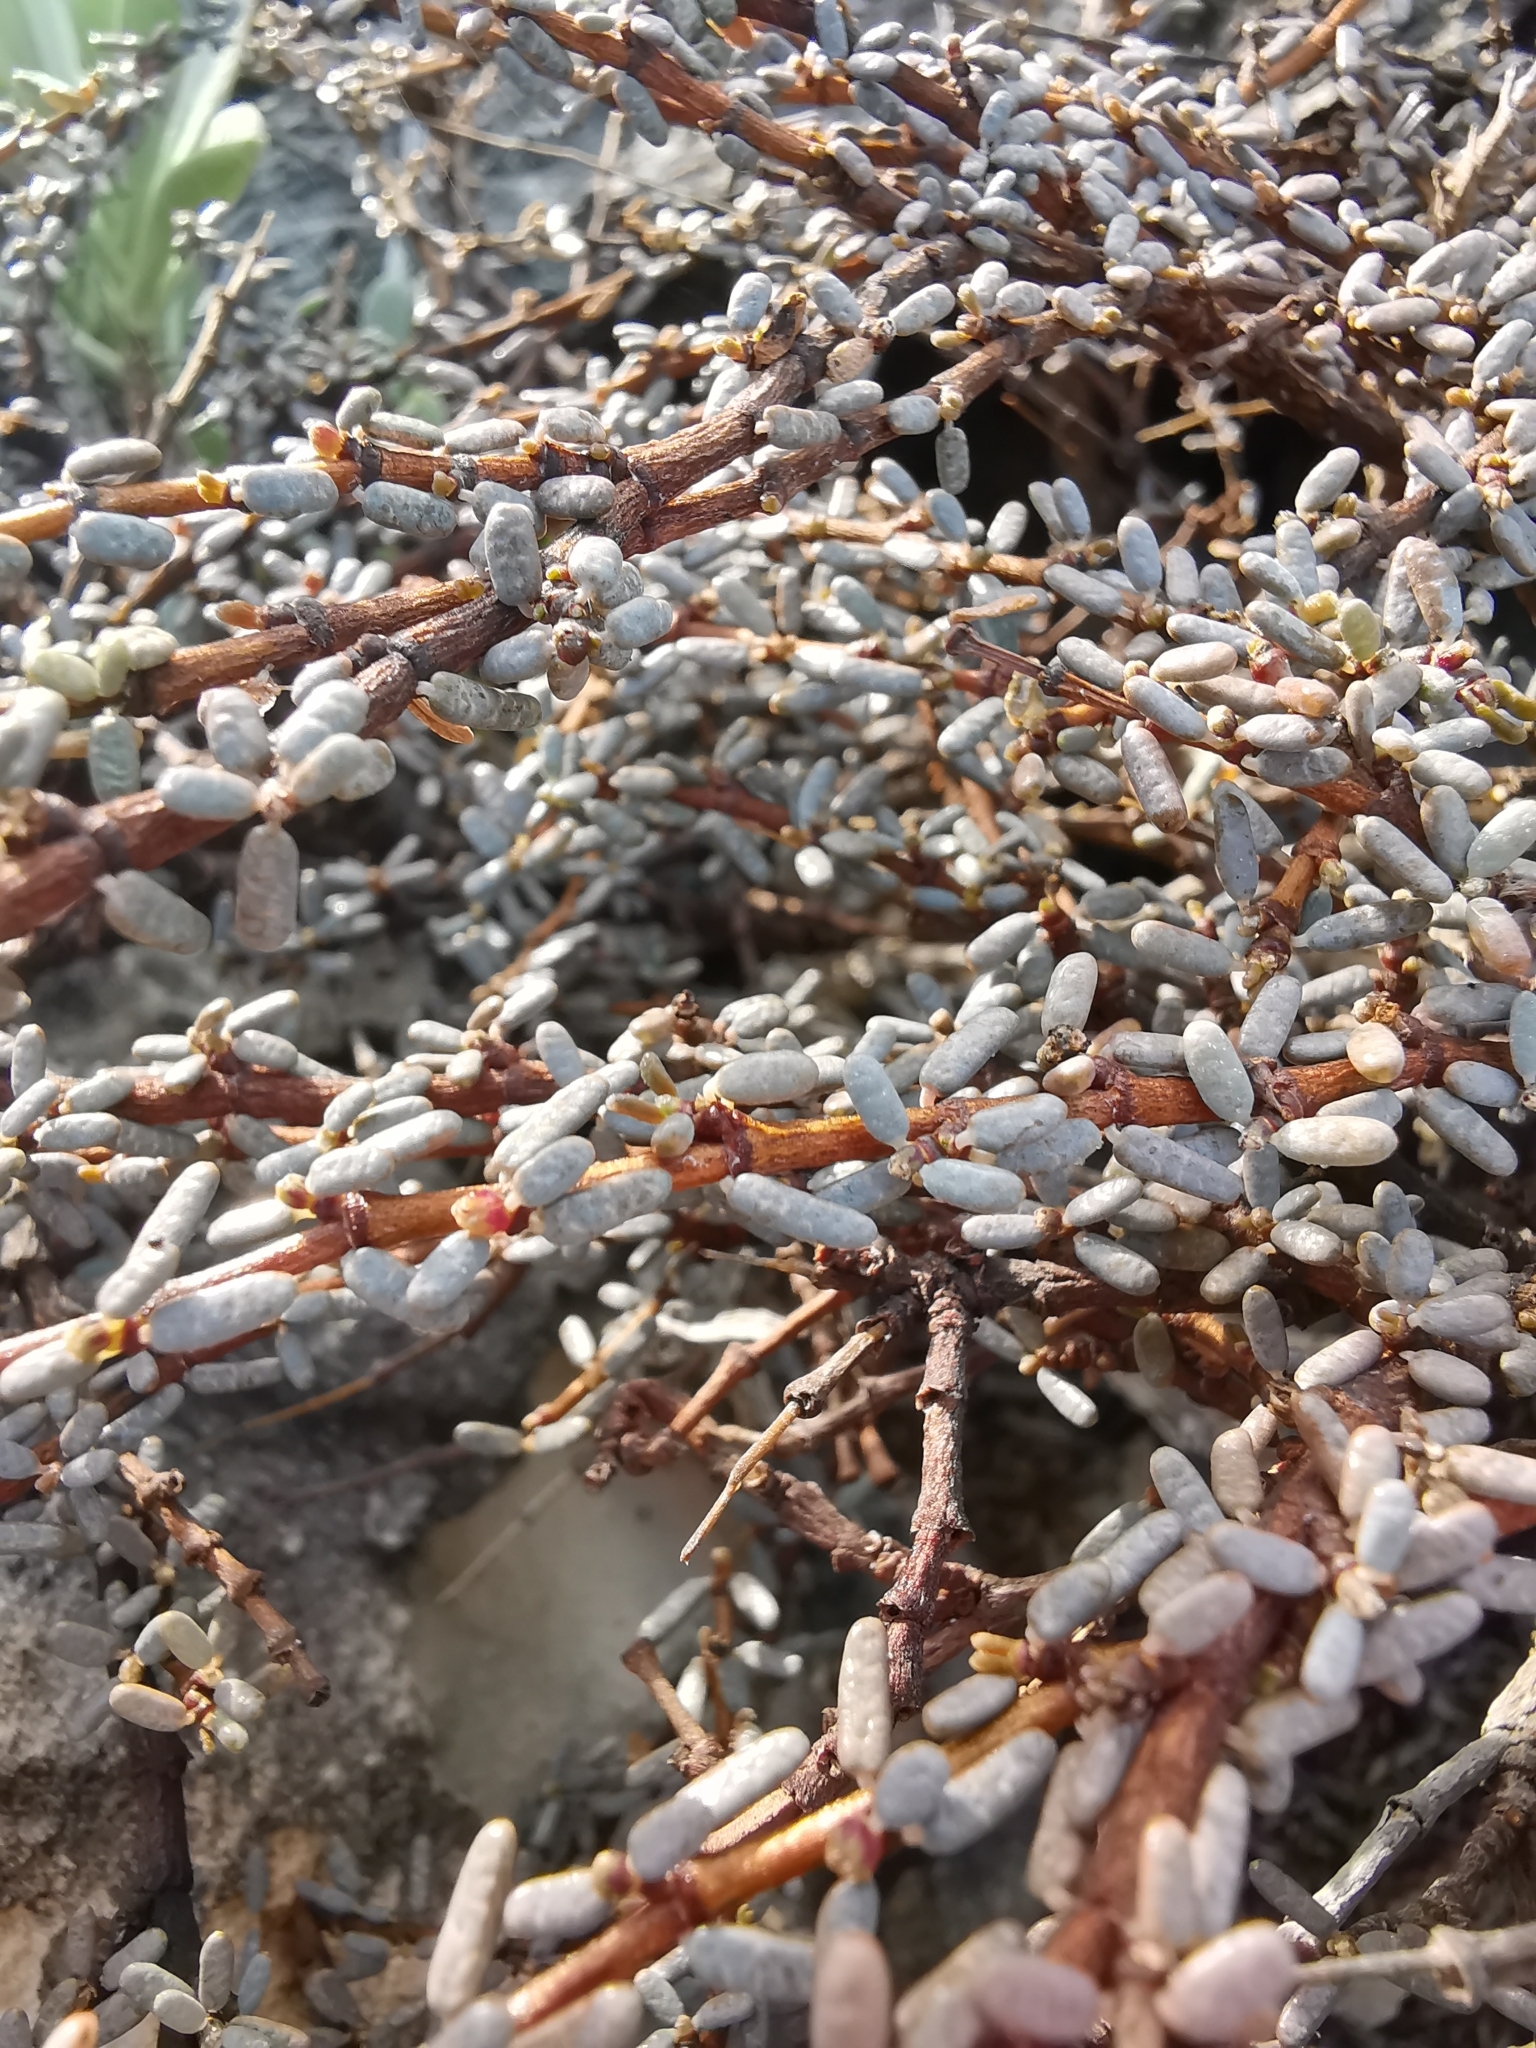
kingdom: Plantae
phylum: Tracheophyta
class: Magnoliopsida
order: Malpighiales
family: Euphorbiaceae
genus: Euphorbia
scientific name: Euphorbia vaginulata
